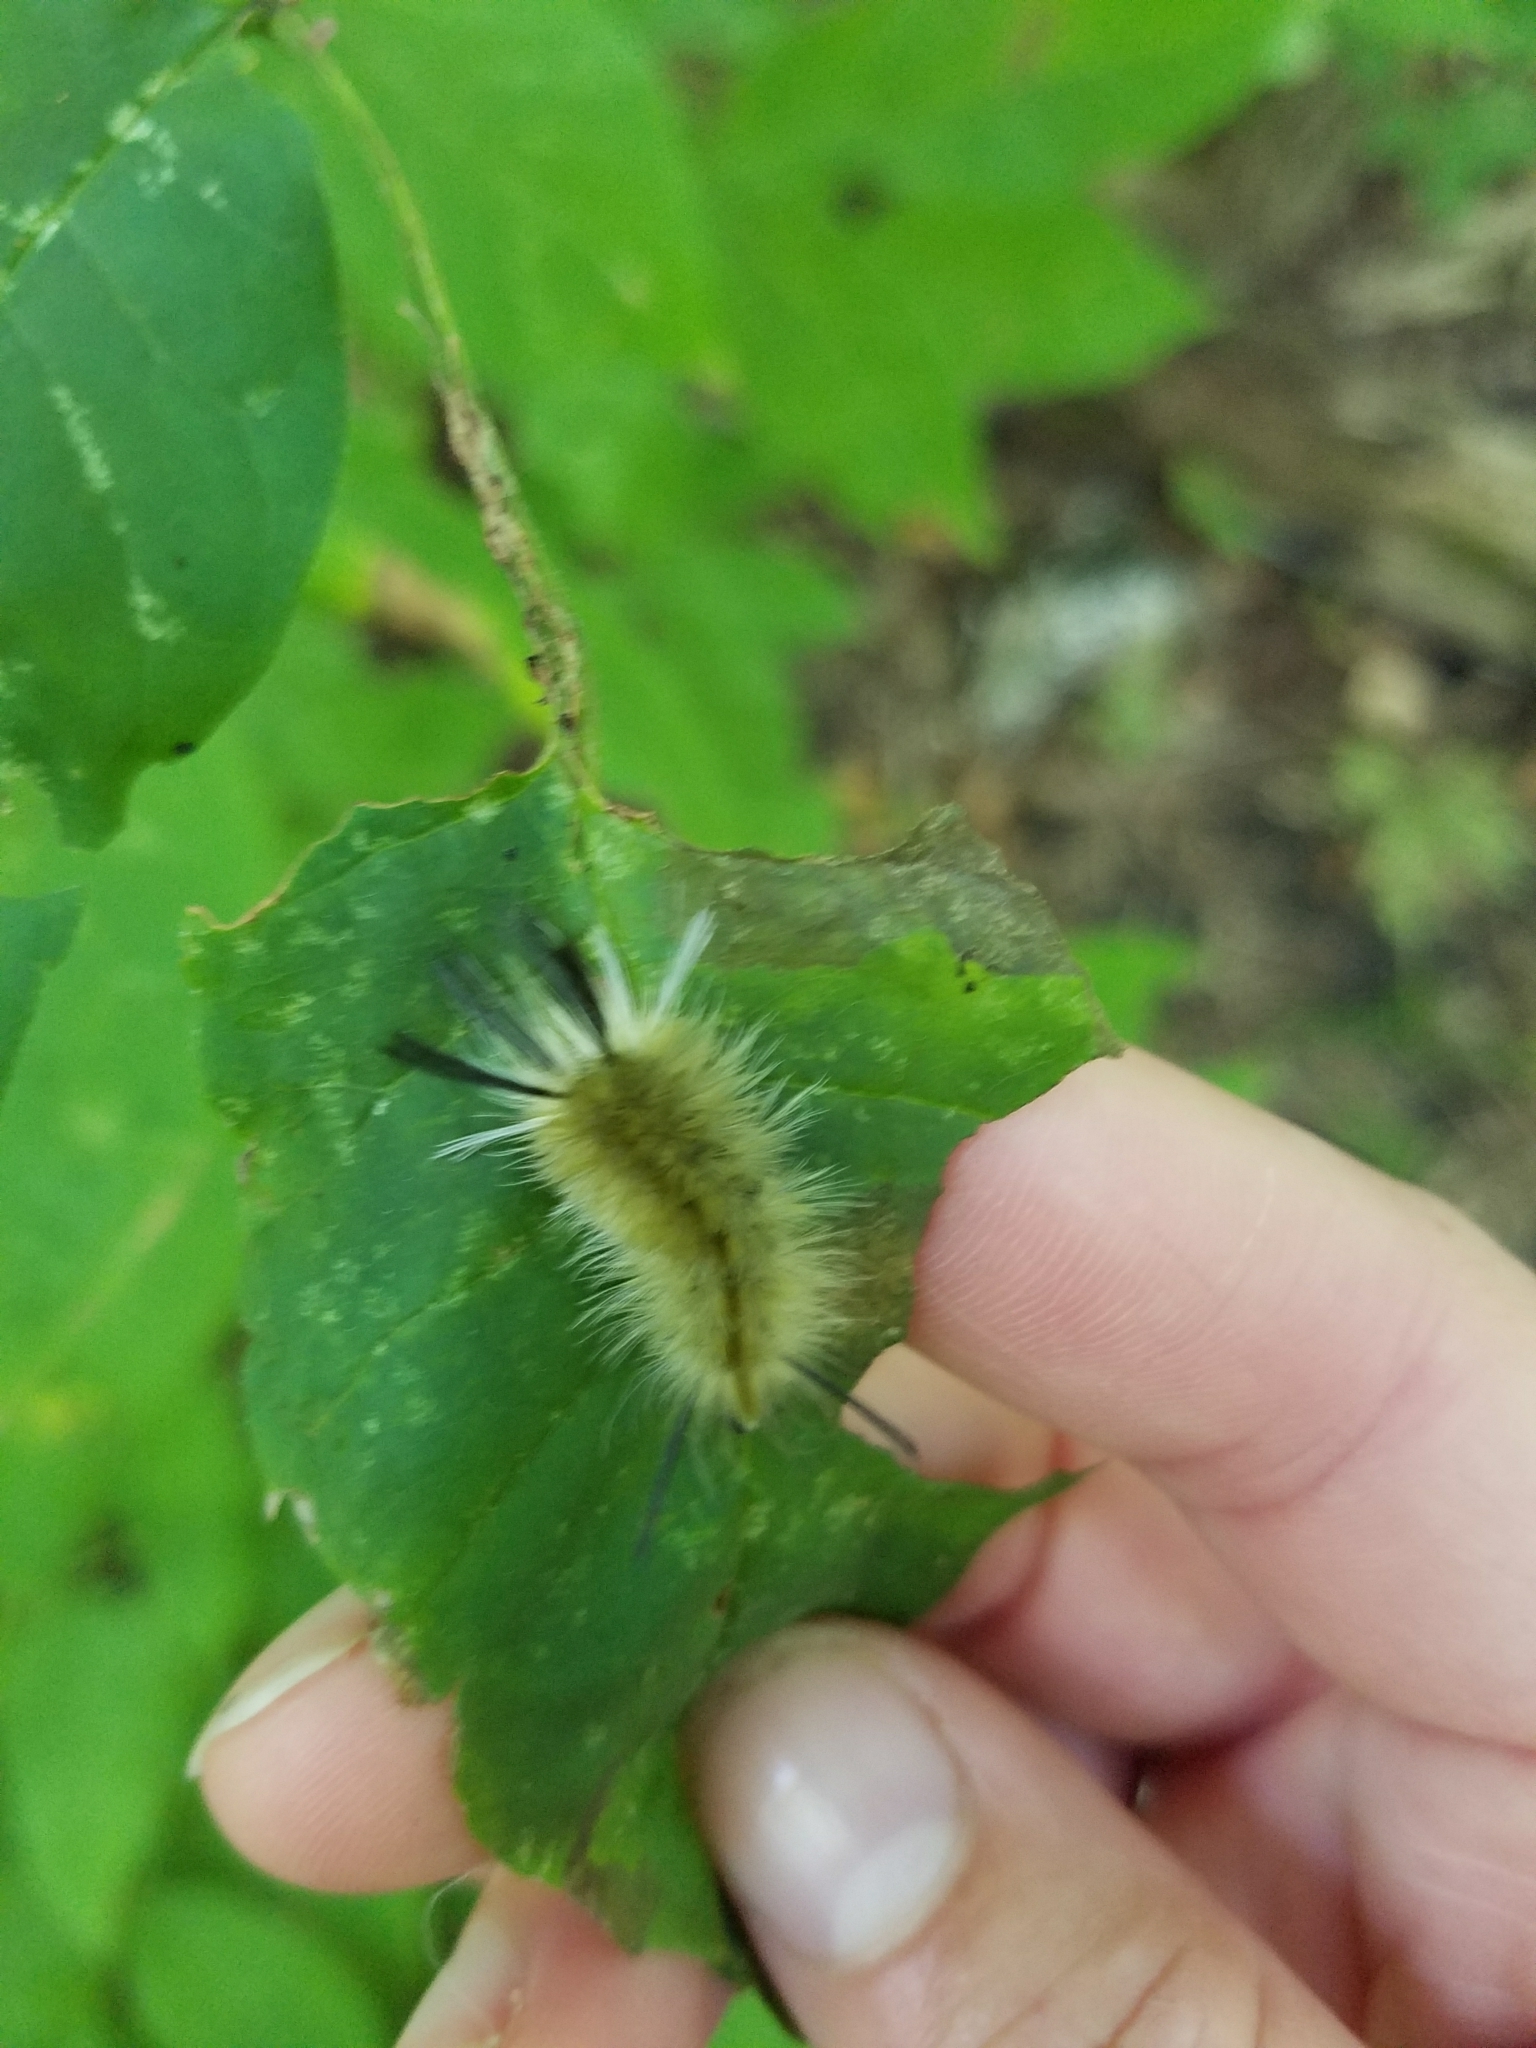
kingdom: Animalia
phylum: Arthropoda
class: Insecta
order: Lepidoptera
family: Erebidae
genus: Halysidota
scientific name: Halysidota tessellaris
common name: Banded tussock moth
